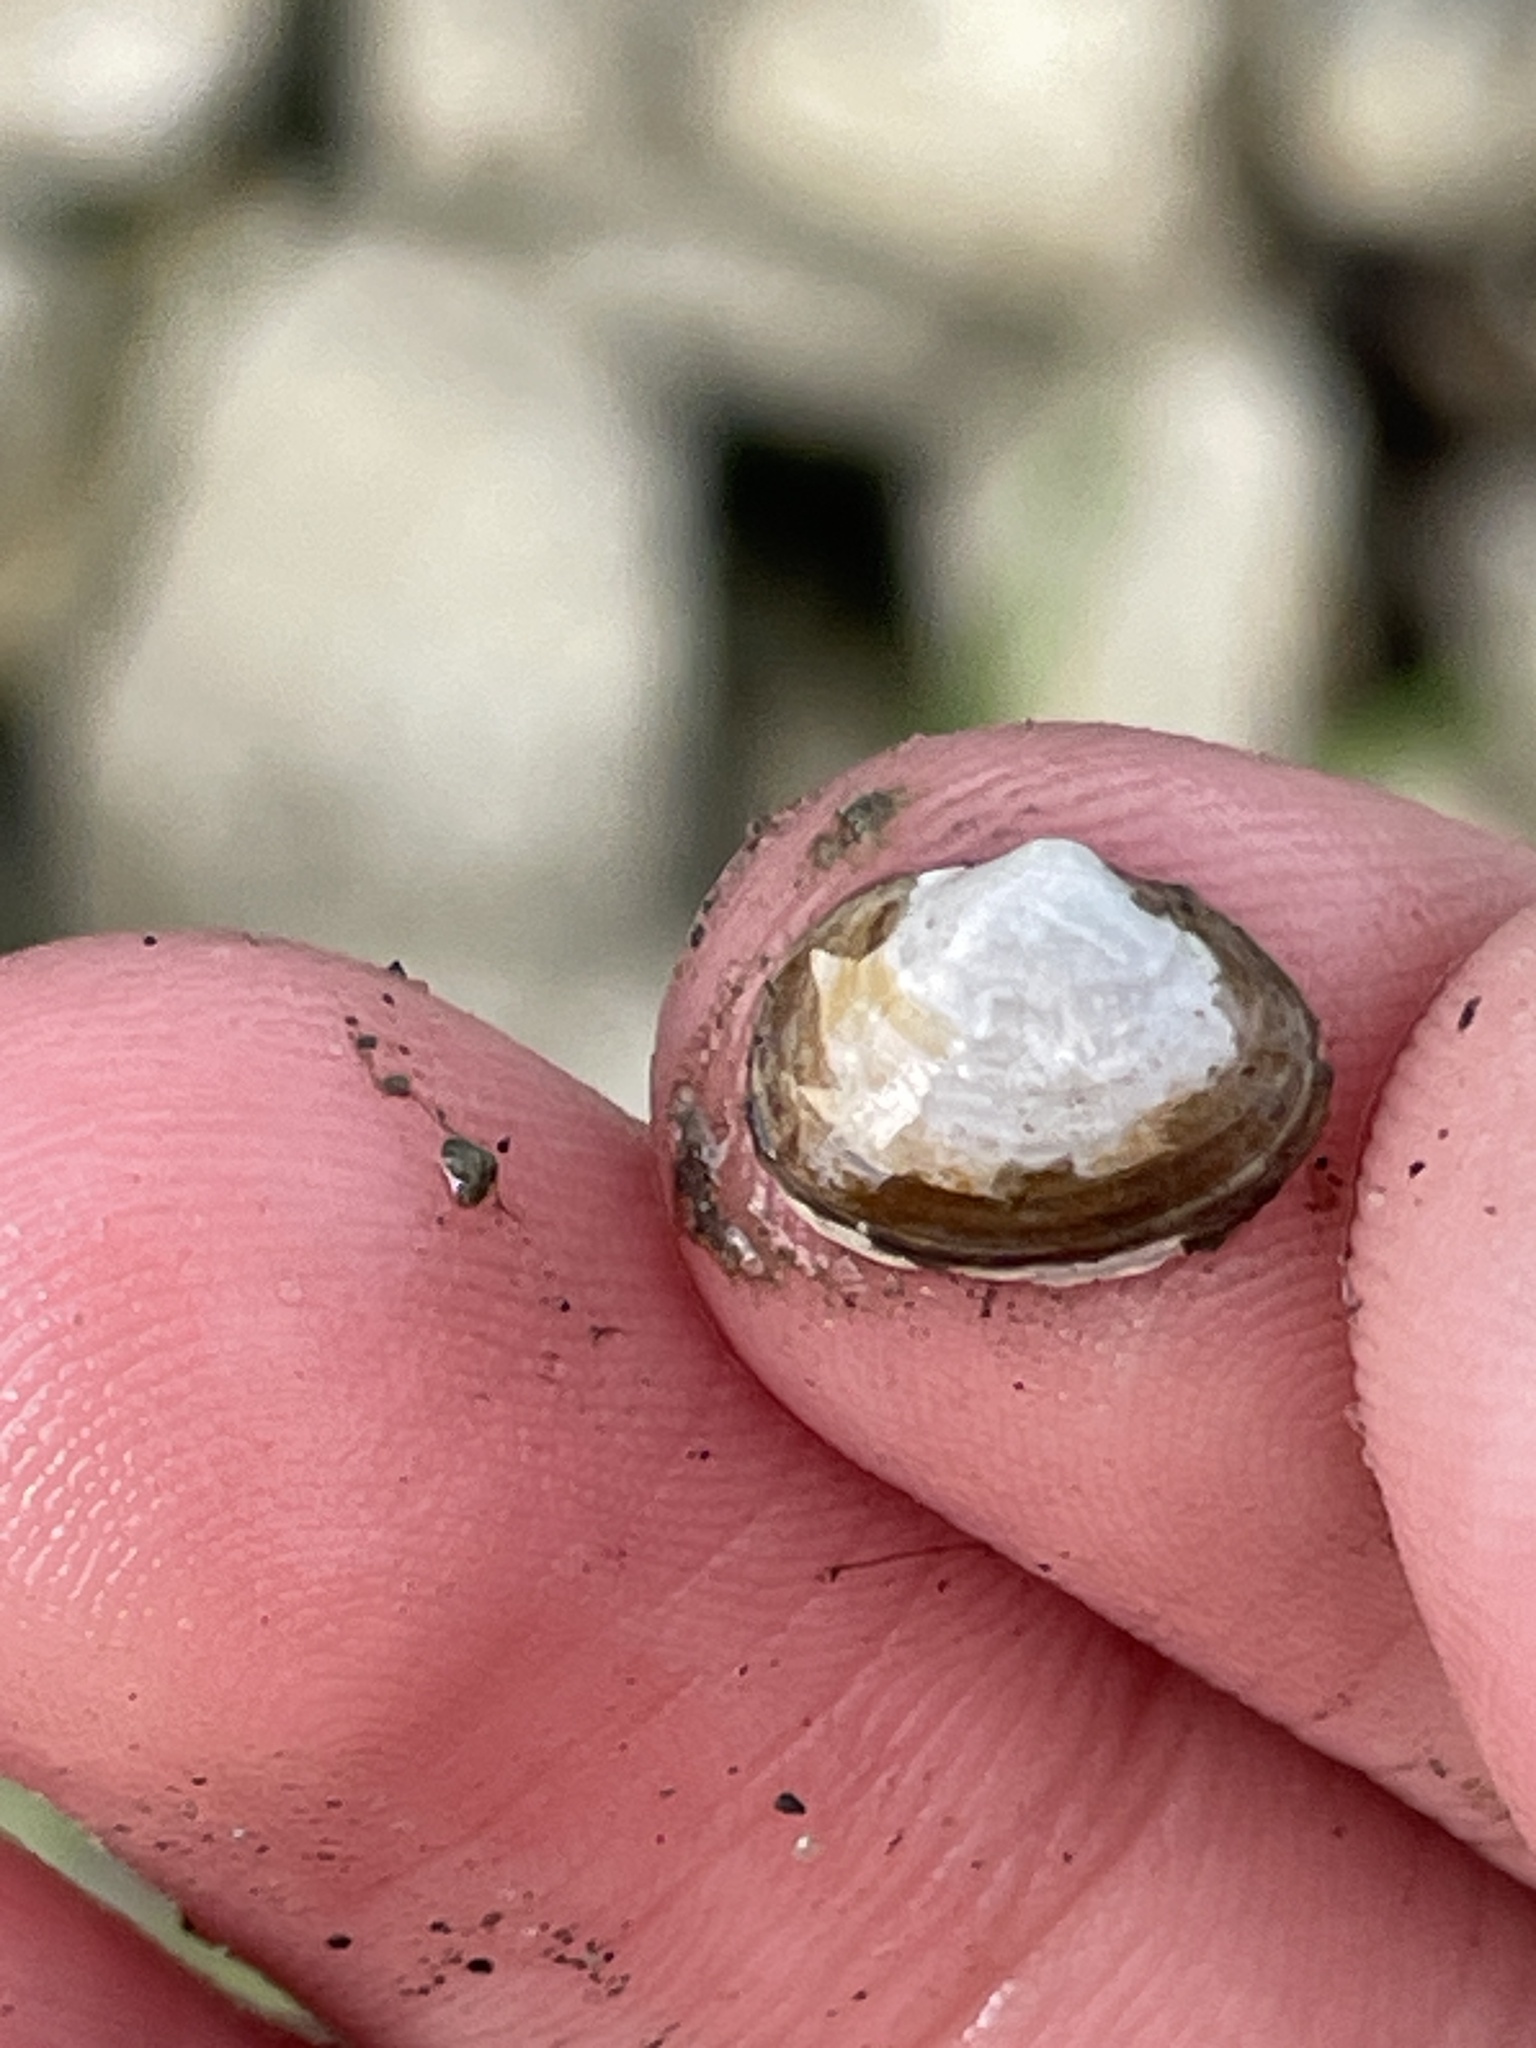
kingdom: Animalia
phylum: Mollusca
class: Bivalvia
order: Sphaeriida
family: Sphaeriidae
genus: Musculium
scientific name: Musculium lacustre
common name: Lake fingernailclam
